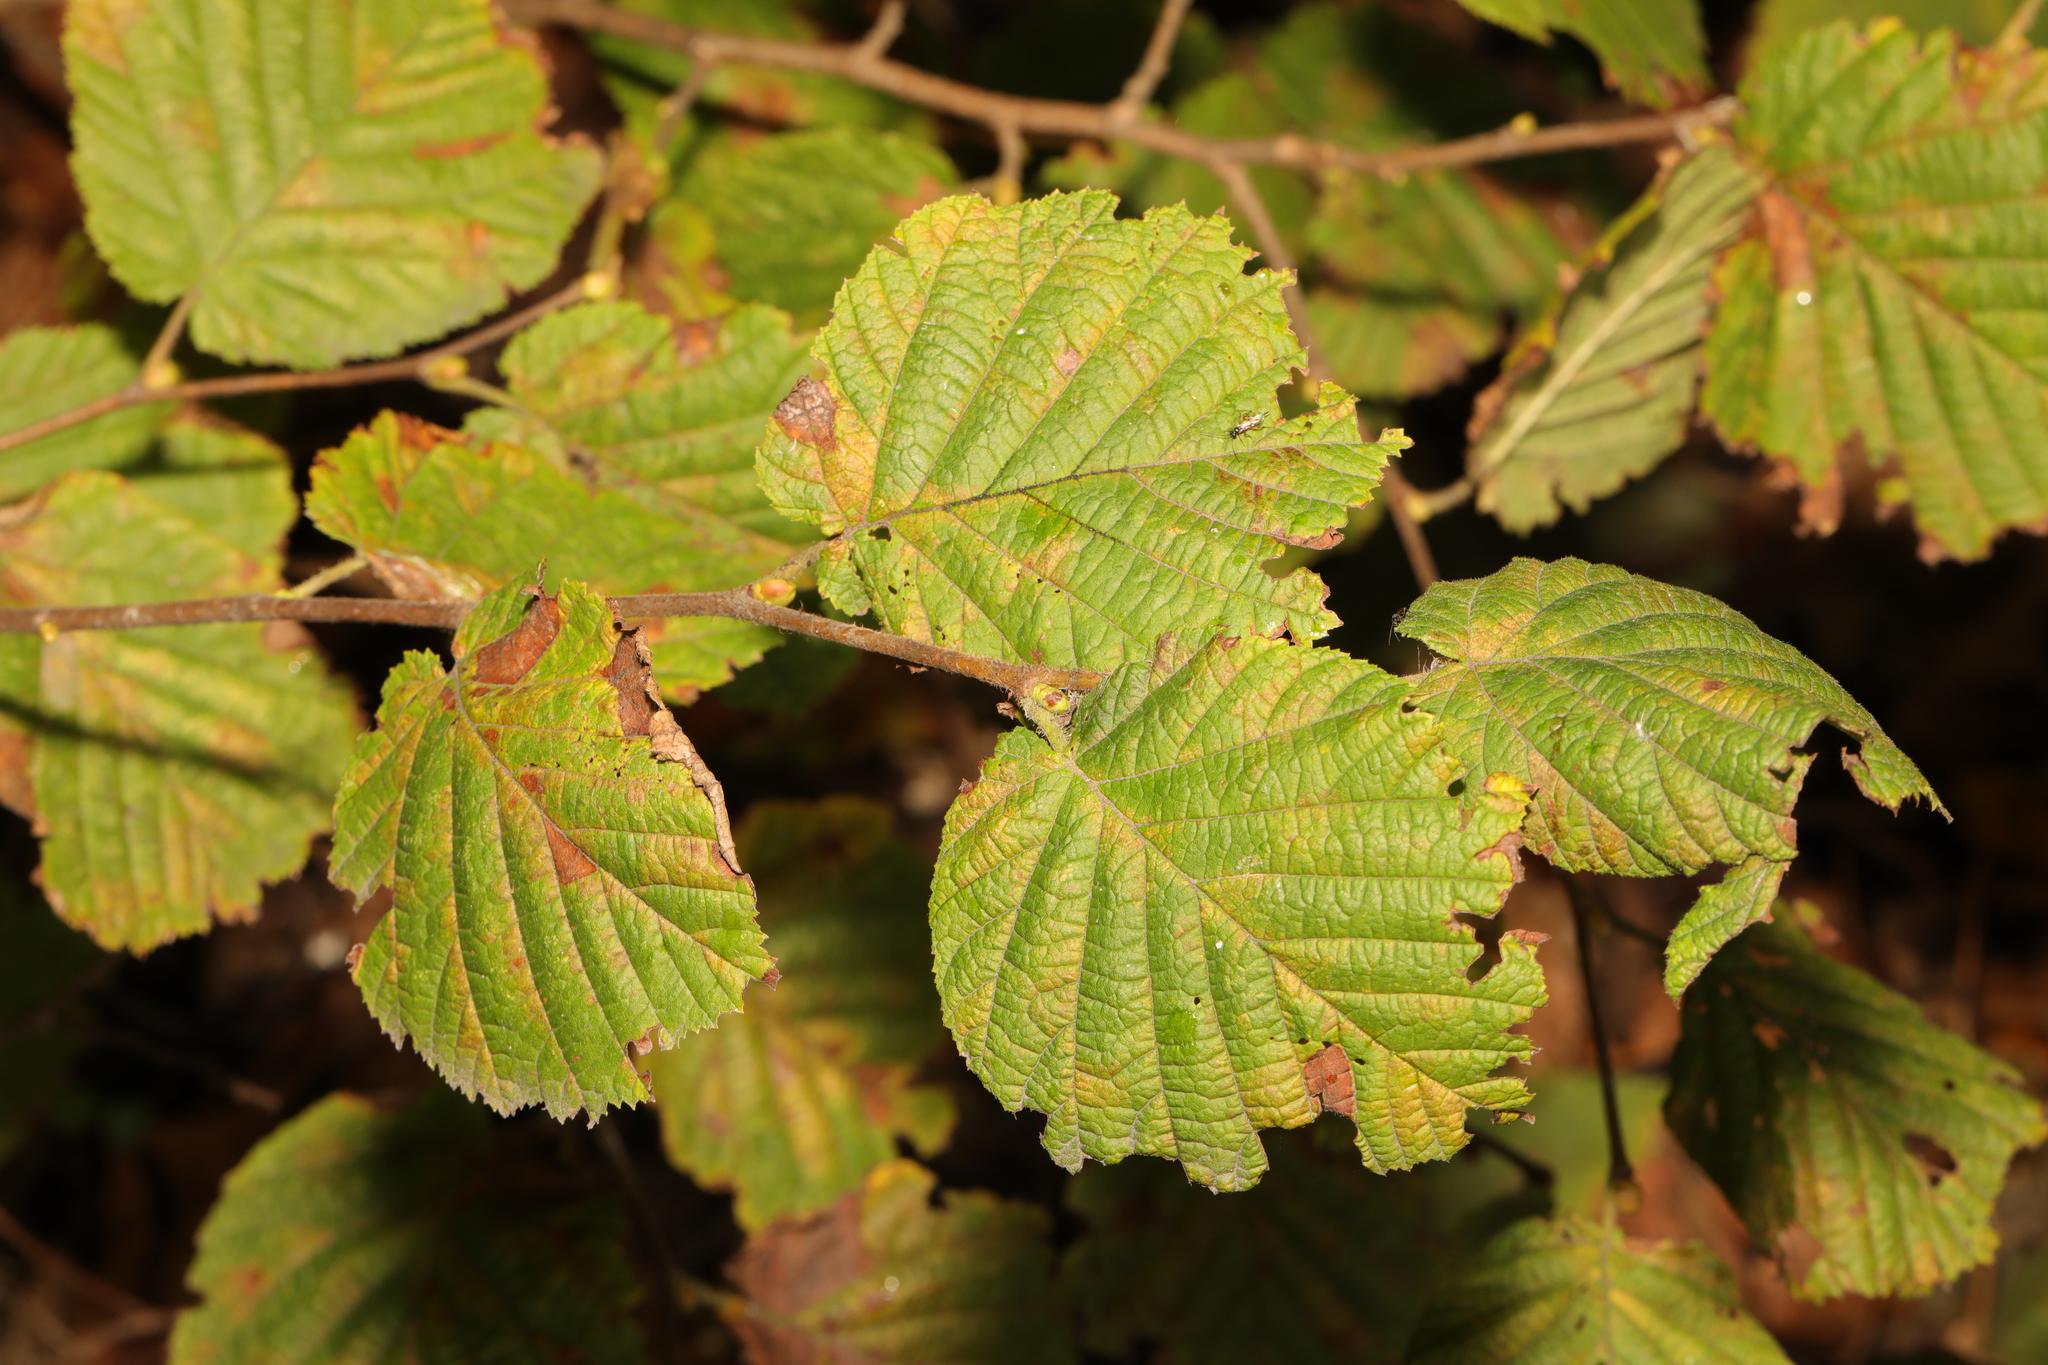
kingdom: Plantae
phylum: Tracheophyta
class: Magnoliopsida
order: Fagales
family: Betulaceae
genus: Corylus
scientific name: Corylus avellana
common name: European hazel
